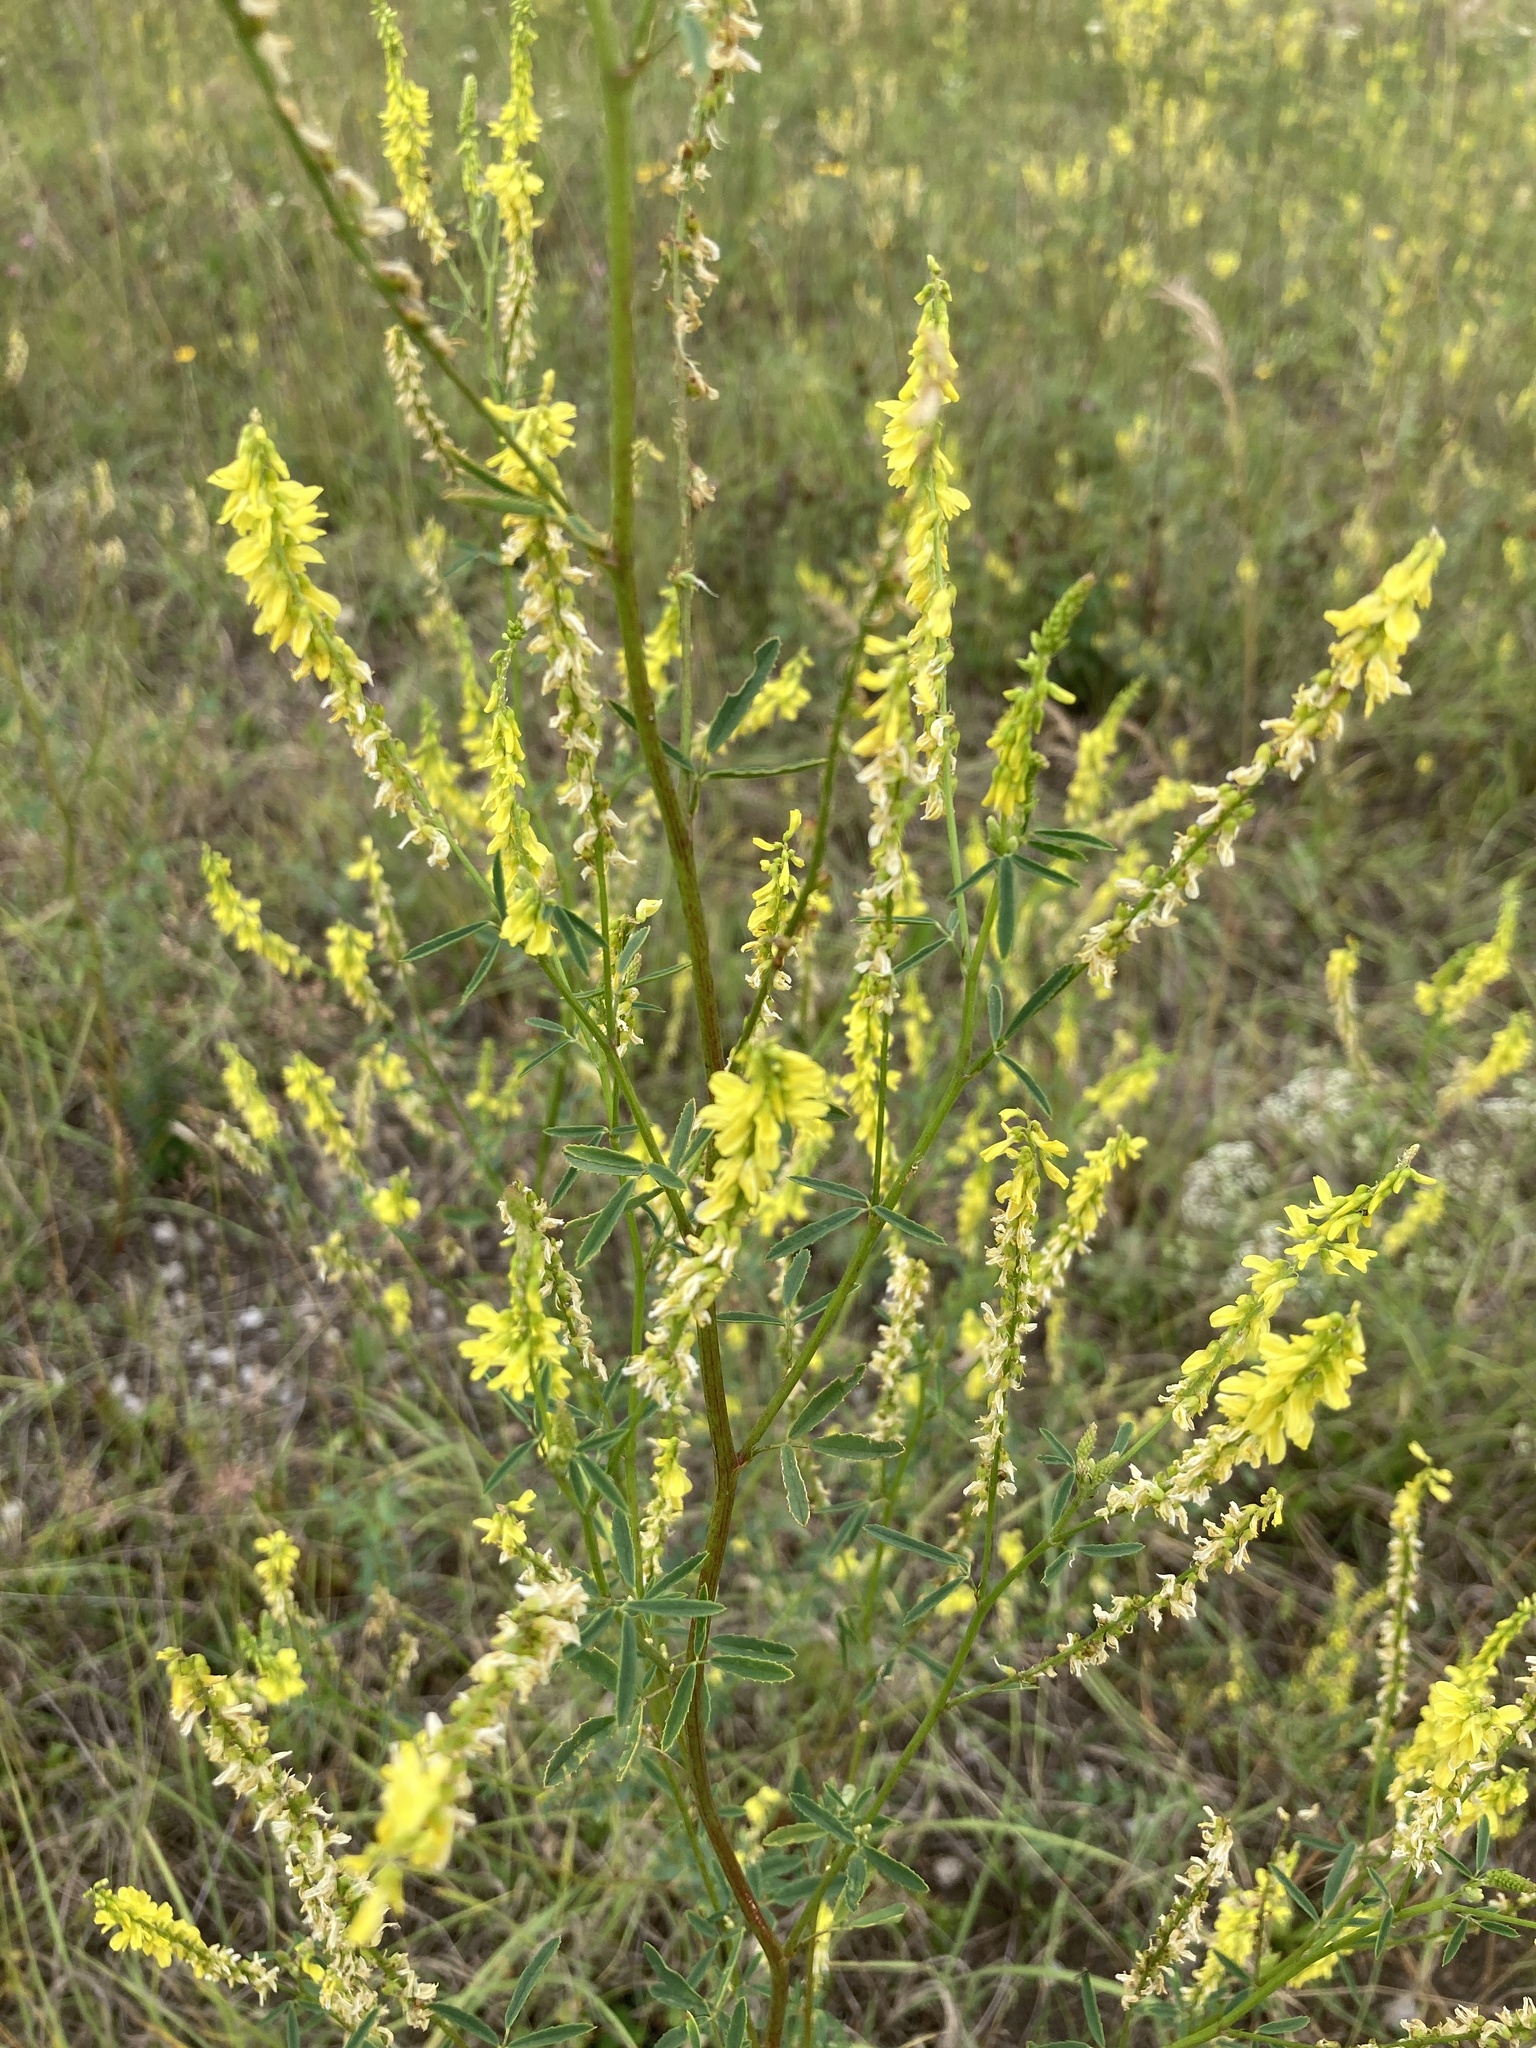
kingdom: Plantae
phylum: Tracheophyta
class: Magnoliopsida
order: Fabales
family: Fabaceae
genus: Melilotus
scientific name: Melilotus officinalis
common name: Sweetclover
